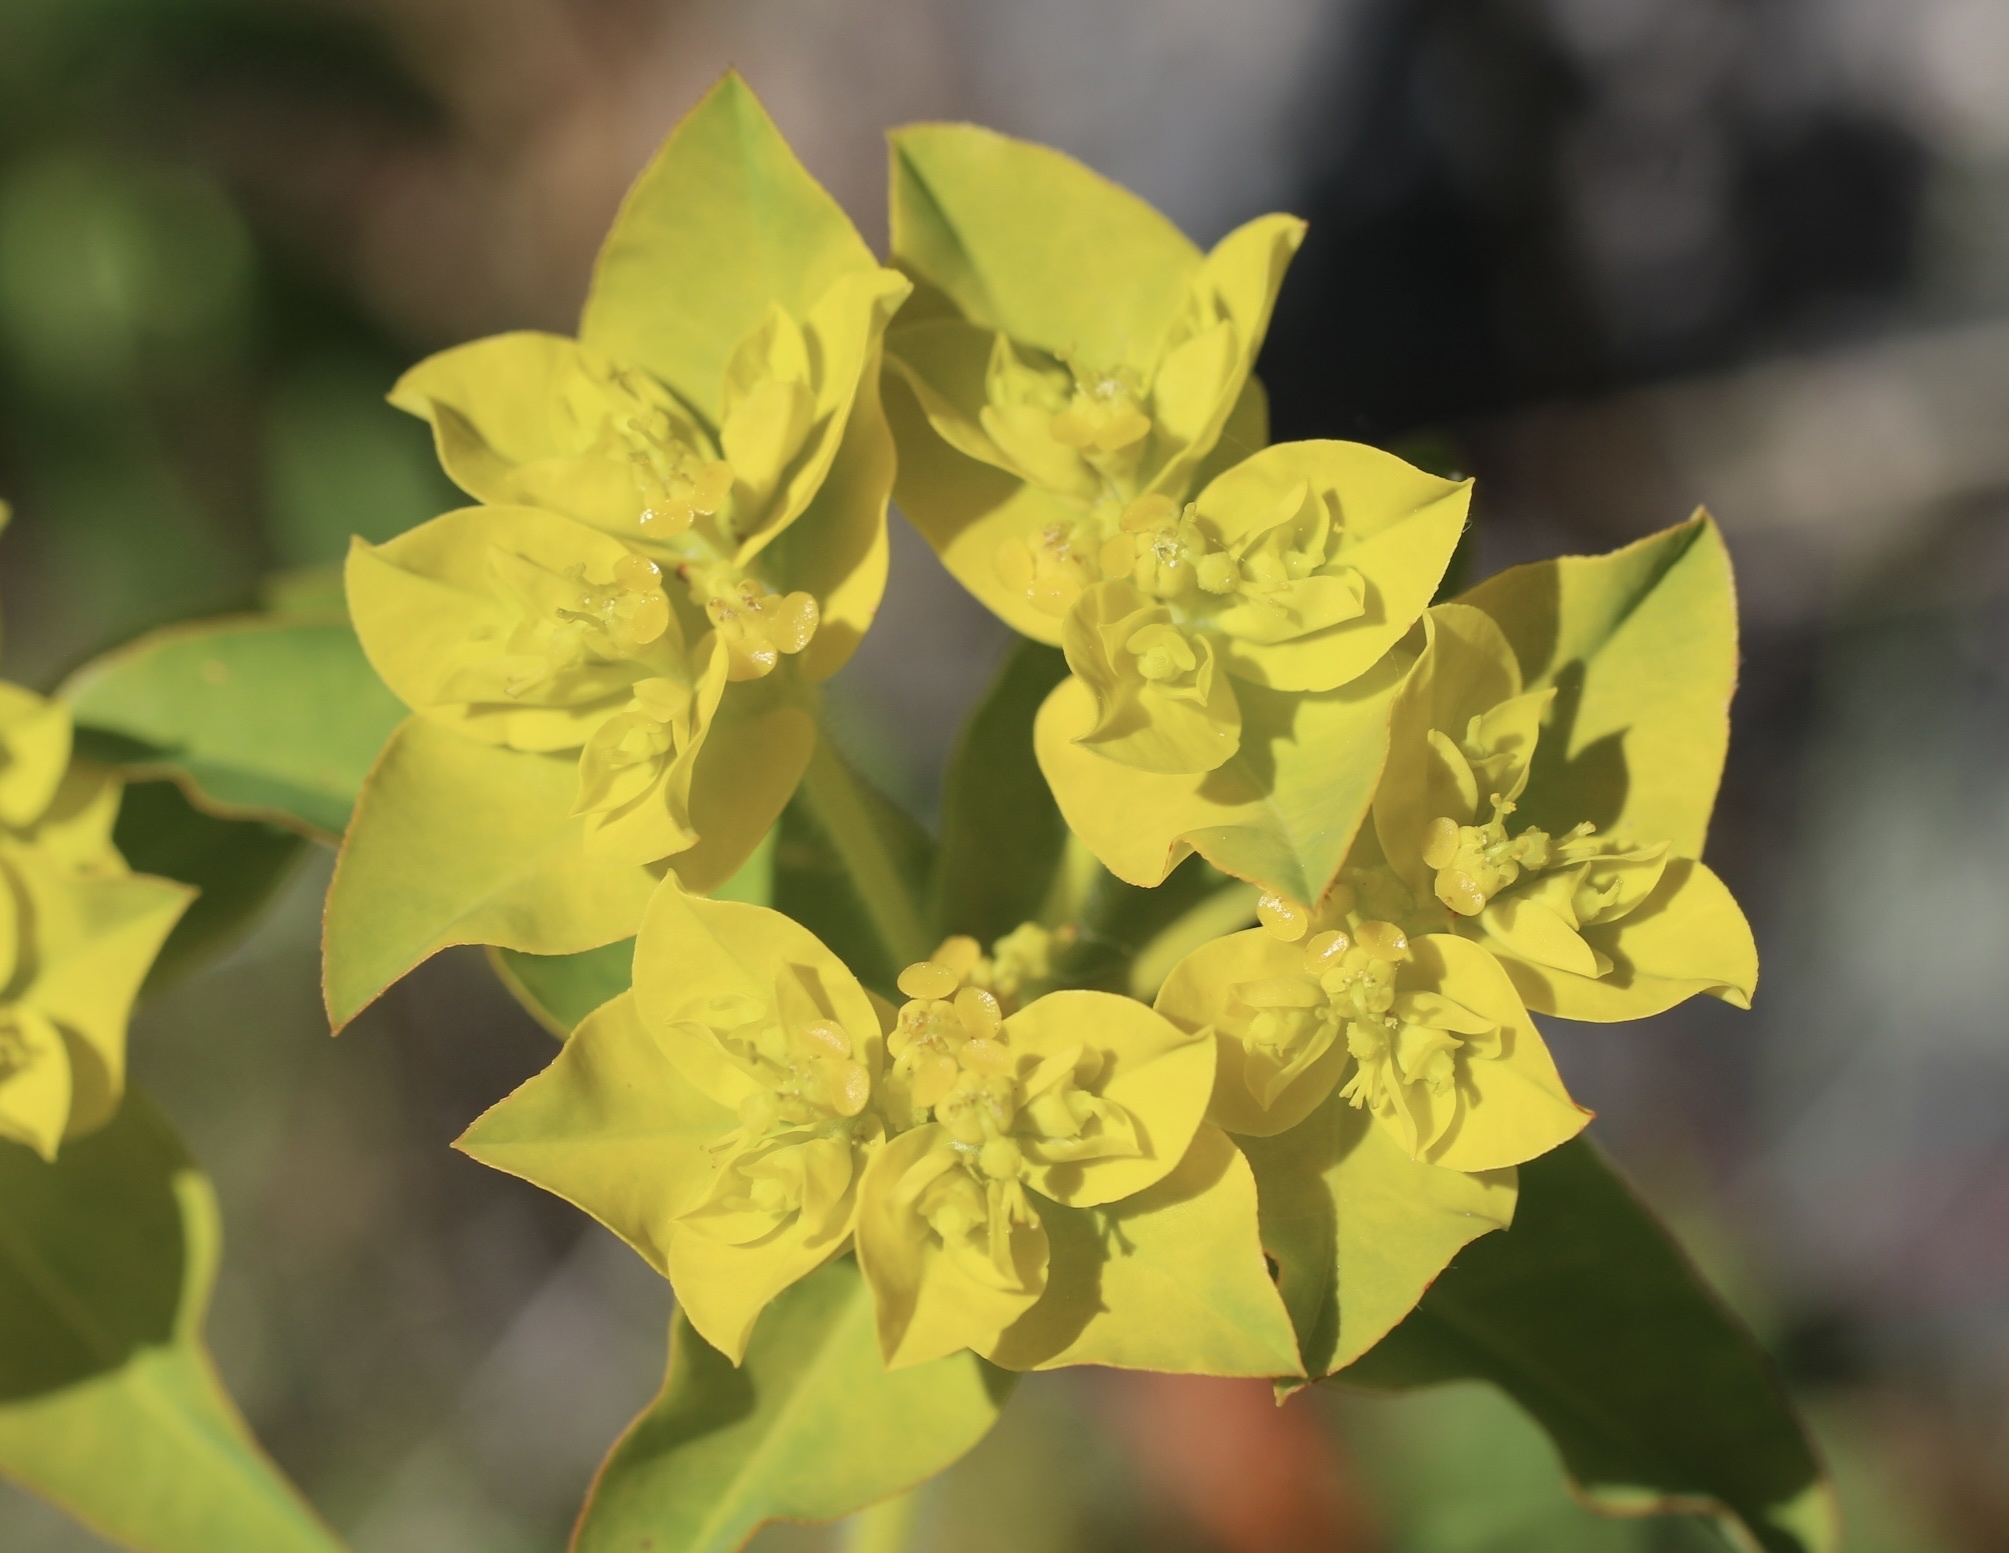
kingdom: Plantae
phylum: Tracheophyta
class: Magnoliopsida
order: Malpighiales
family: Euphorbiaceae
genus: Euphorbia
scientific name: Euphorbia oblongata
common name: Balkan spurge
